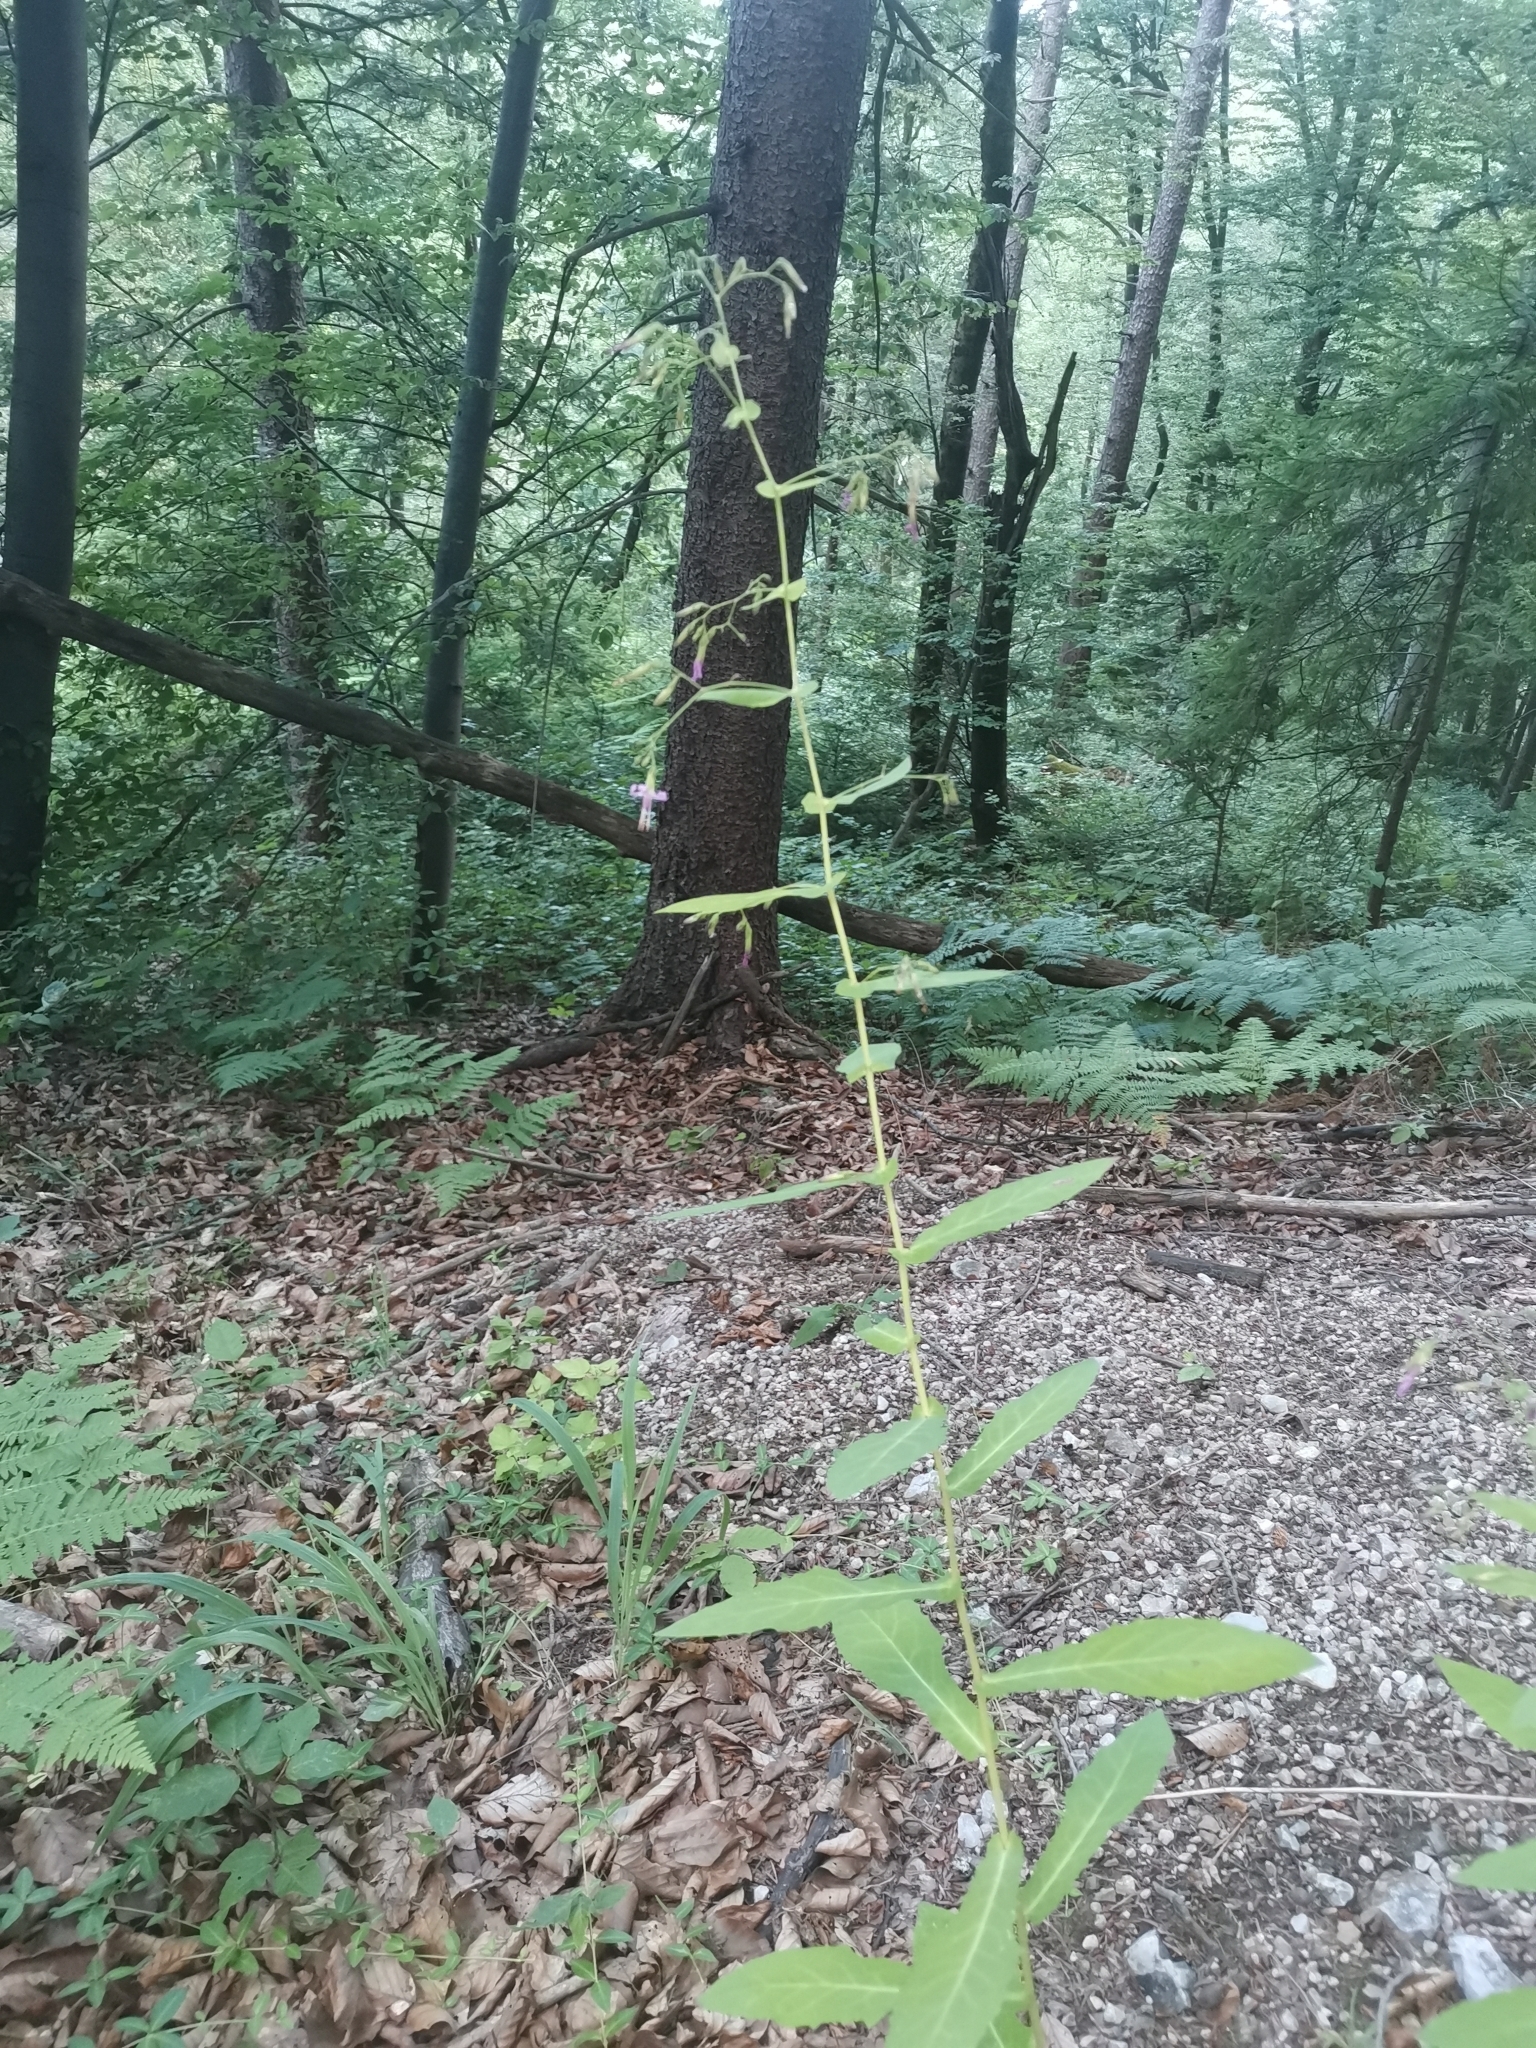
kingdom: Plantae
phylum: Tracheophyta
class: Magnoliopsida
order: Asterales
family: Asteraceae
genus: Prenanthes
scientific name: Prenanthes purpurea
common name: Purple lettuce
